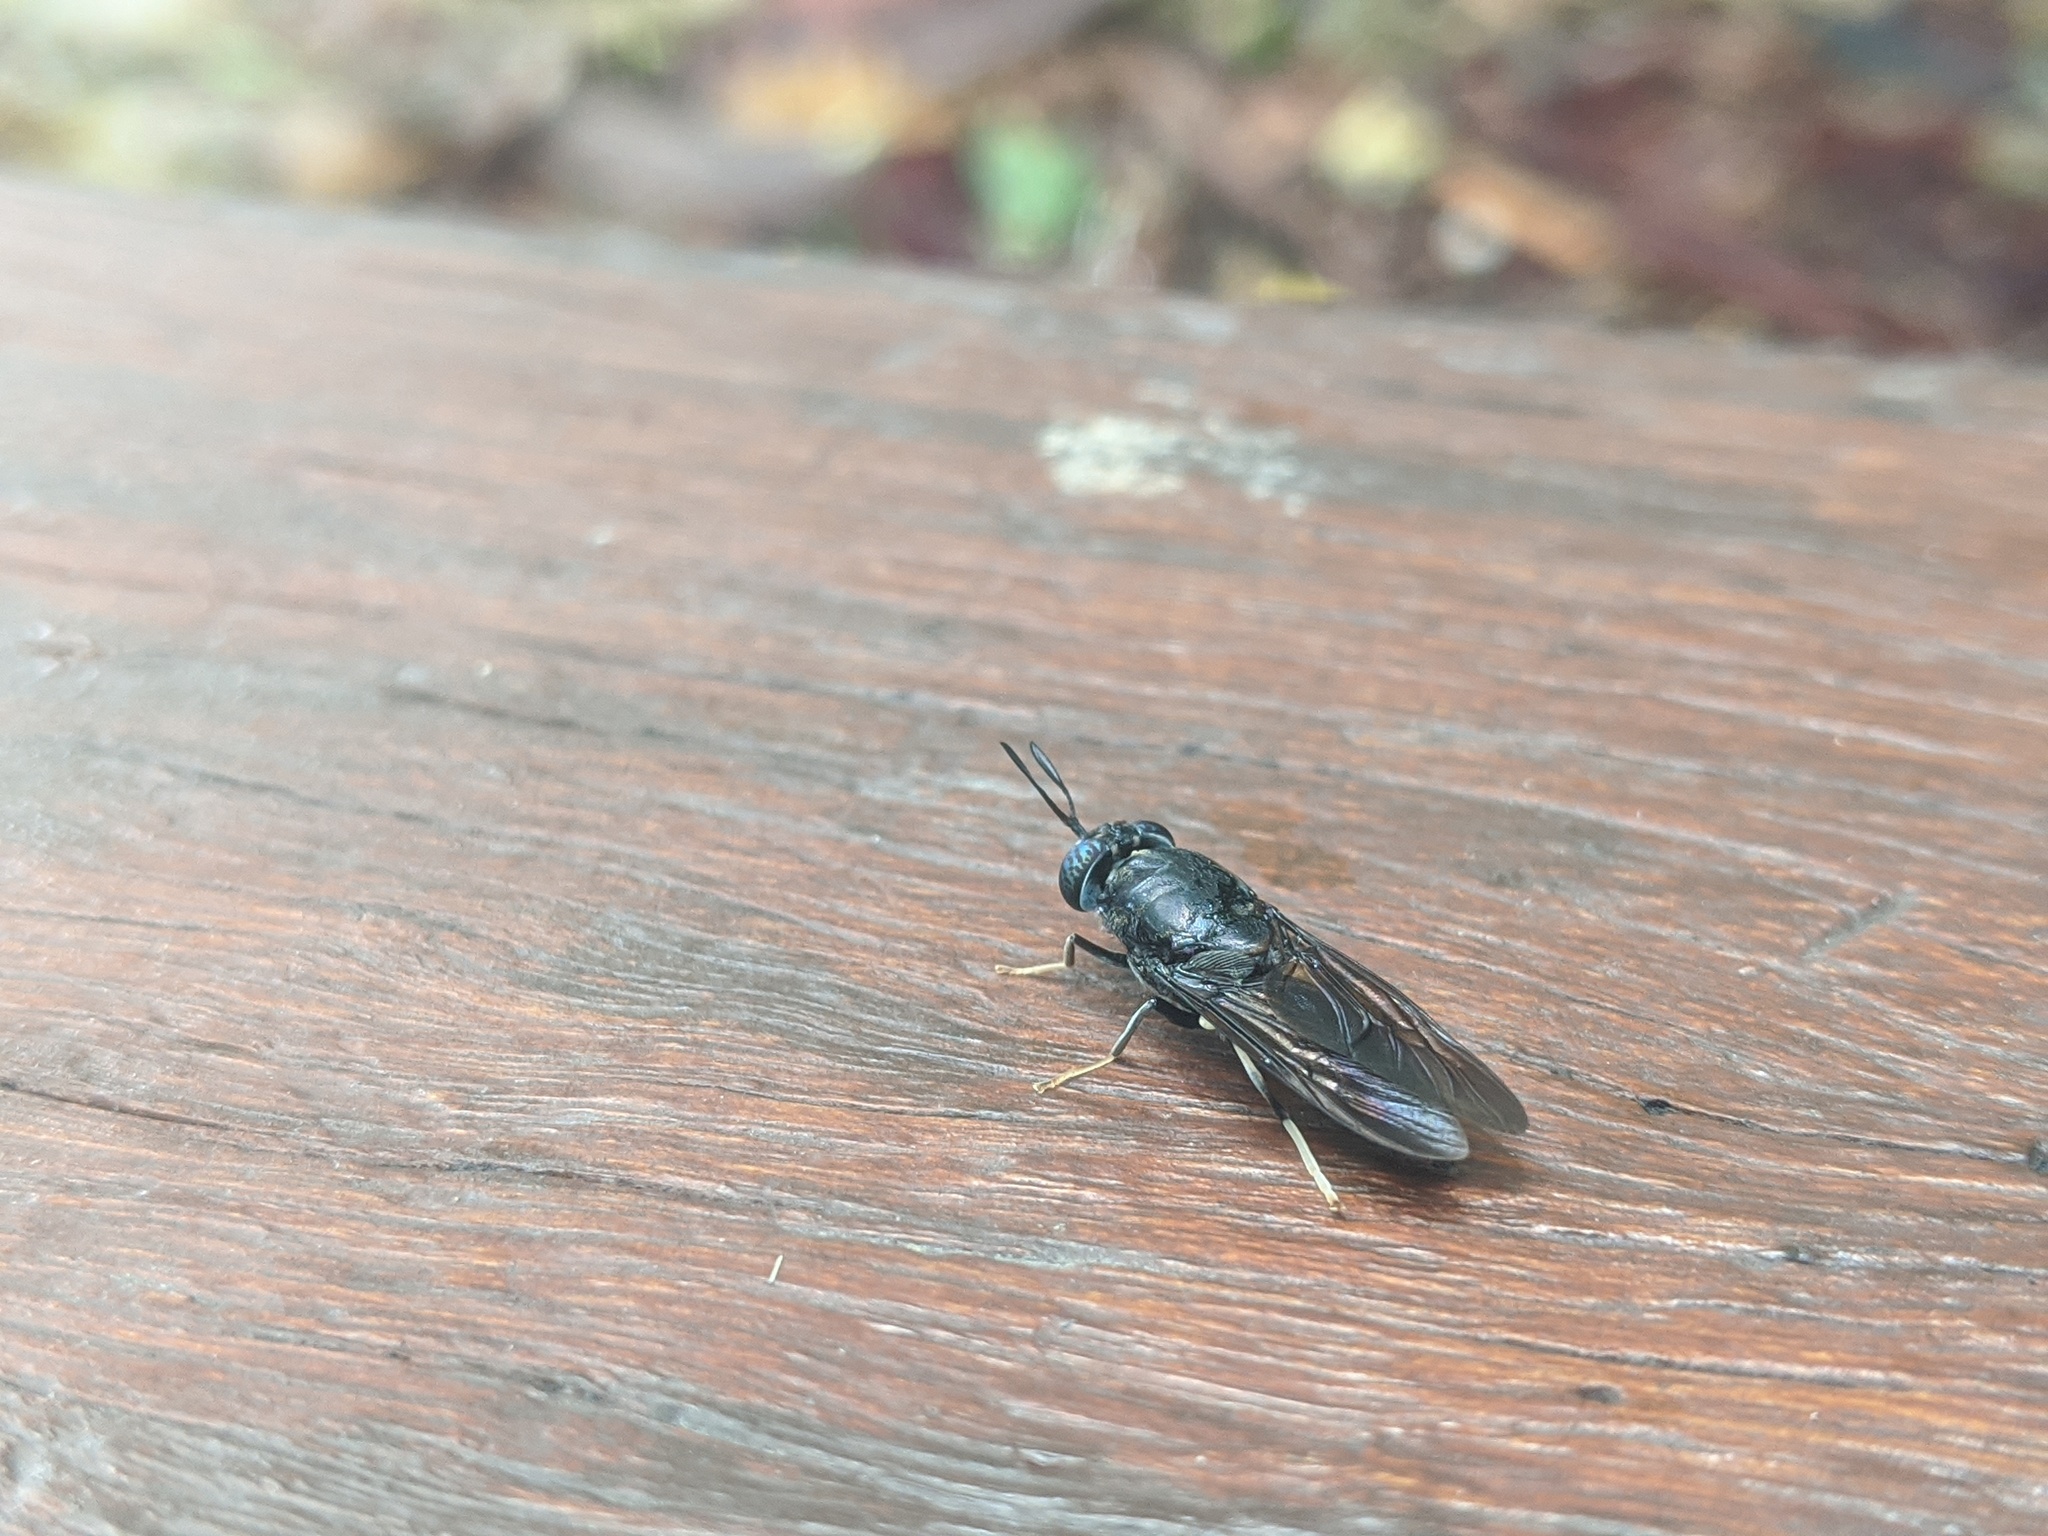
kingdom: Animalia
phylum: Arthropoda
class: Insecta
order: Diptera
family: Stratiomyidae
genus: Hermetia
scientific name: Hermetia illucens
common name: Black soldier fly
